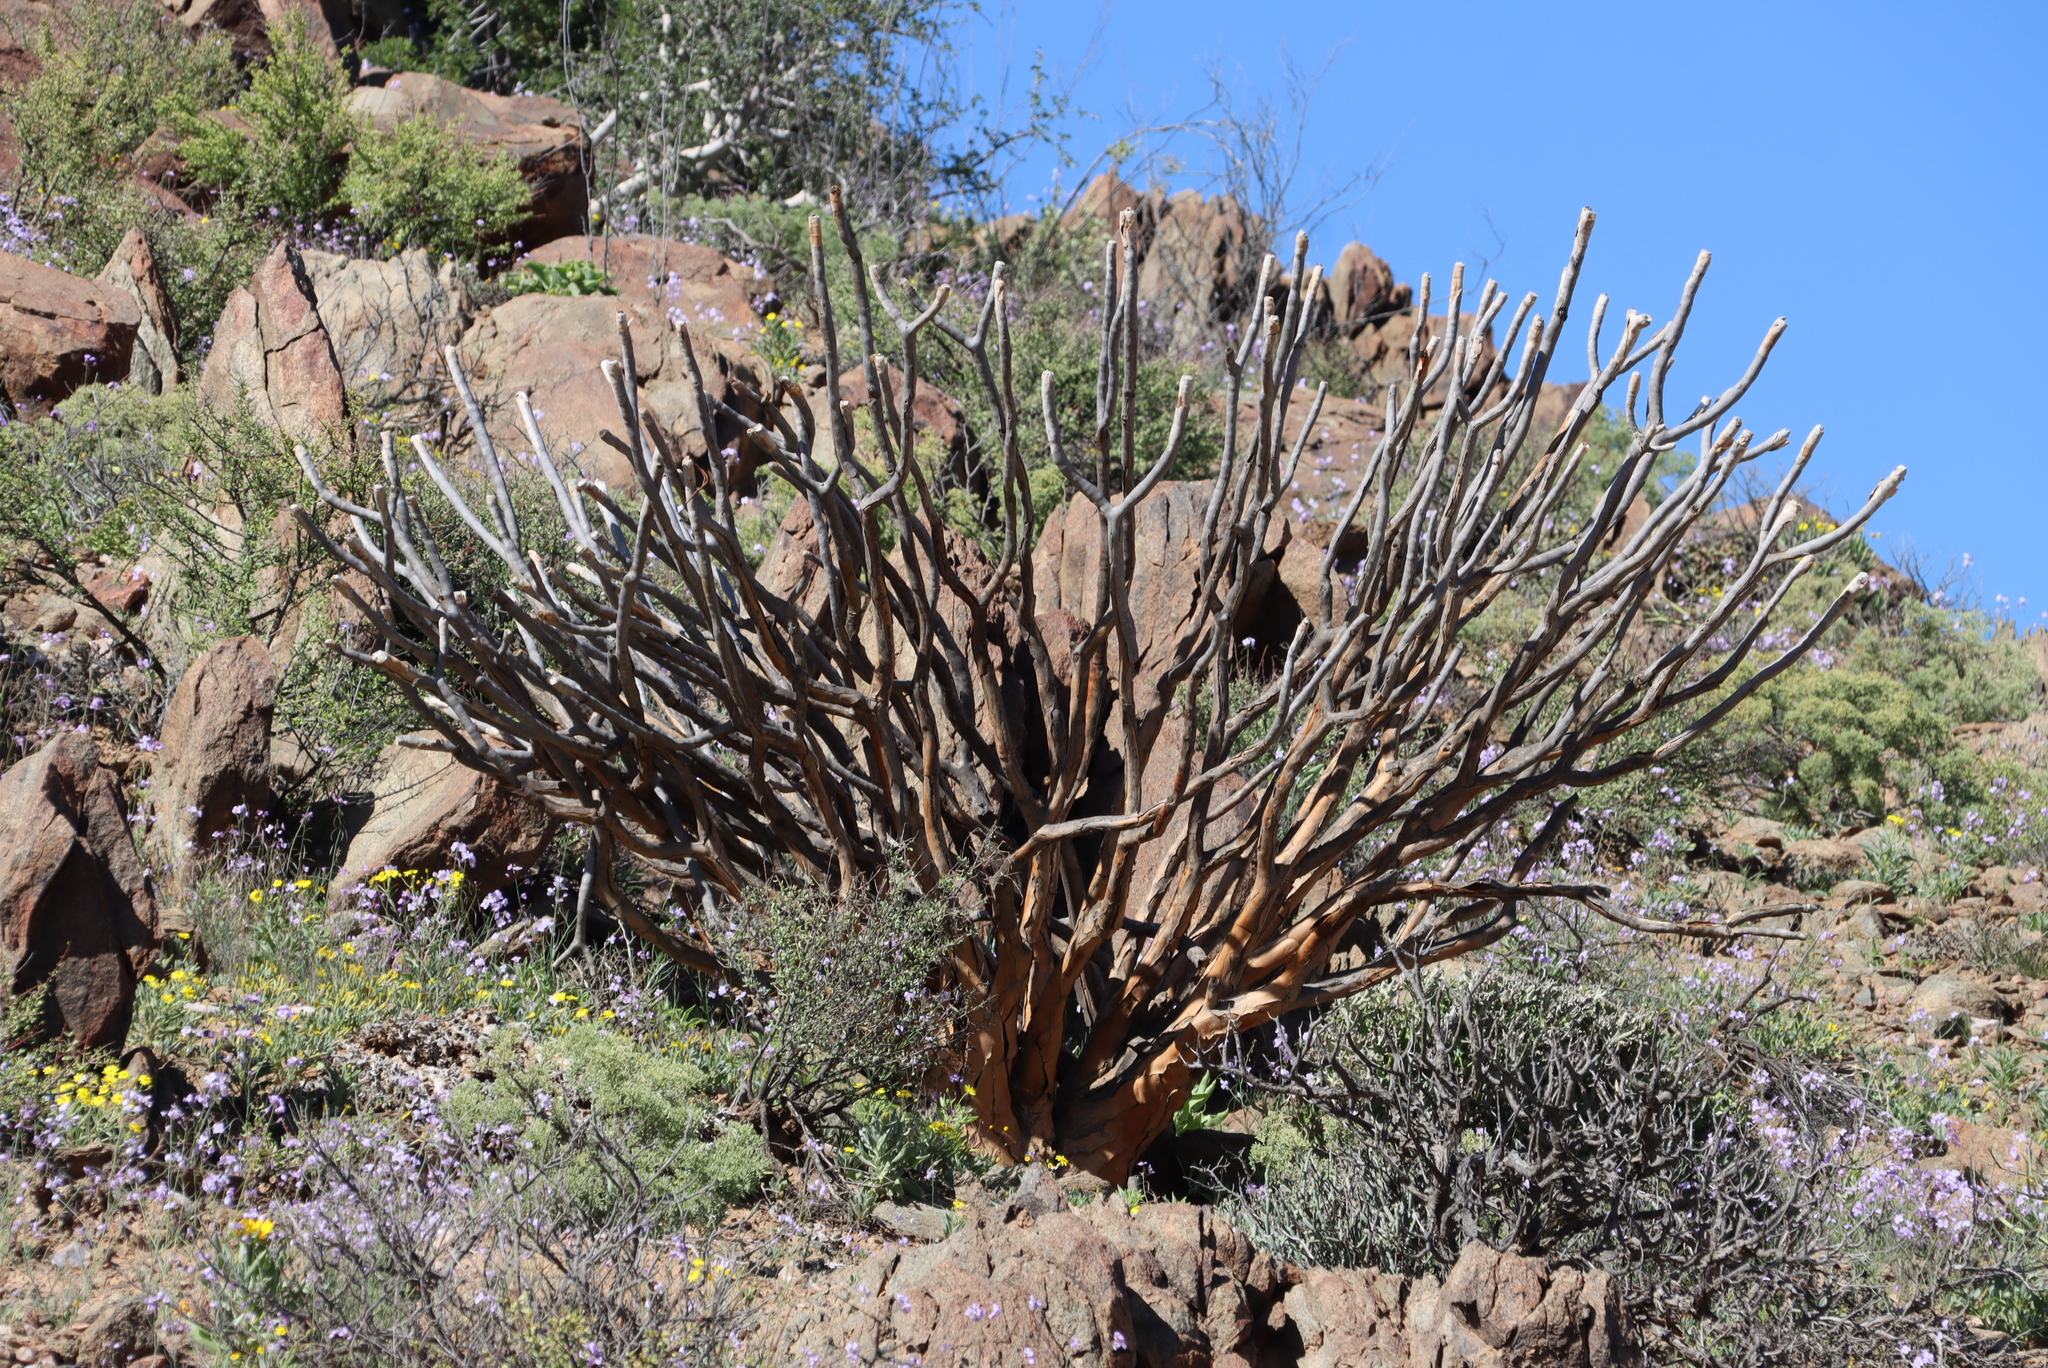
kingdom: Plantae
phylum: Tracheophyta
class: Liliopsida
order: Asparagales
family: Asphodelaceae
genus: Aloidendron
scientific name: Aloidendron ramosissimum
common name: Bush quiver tree
